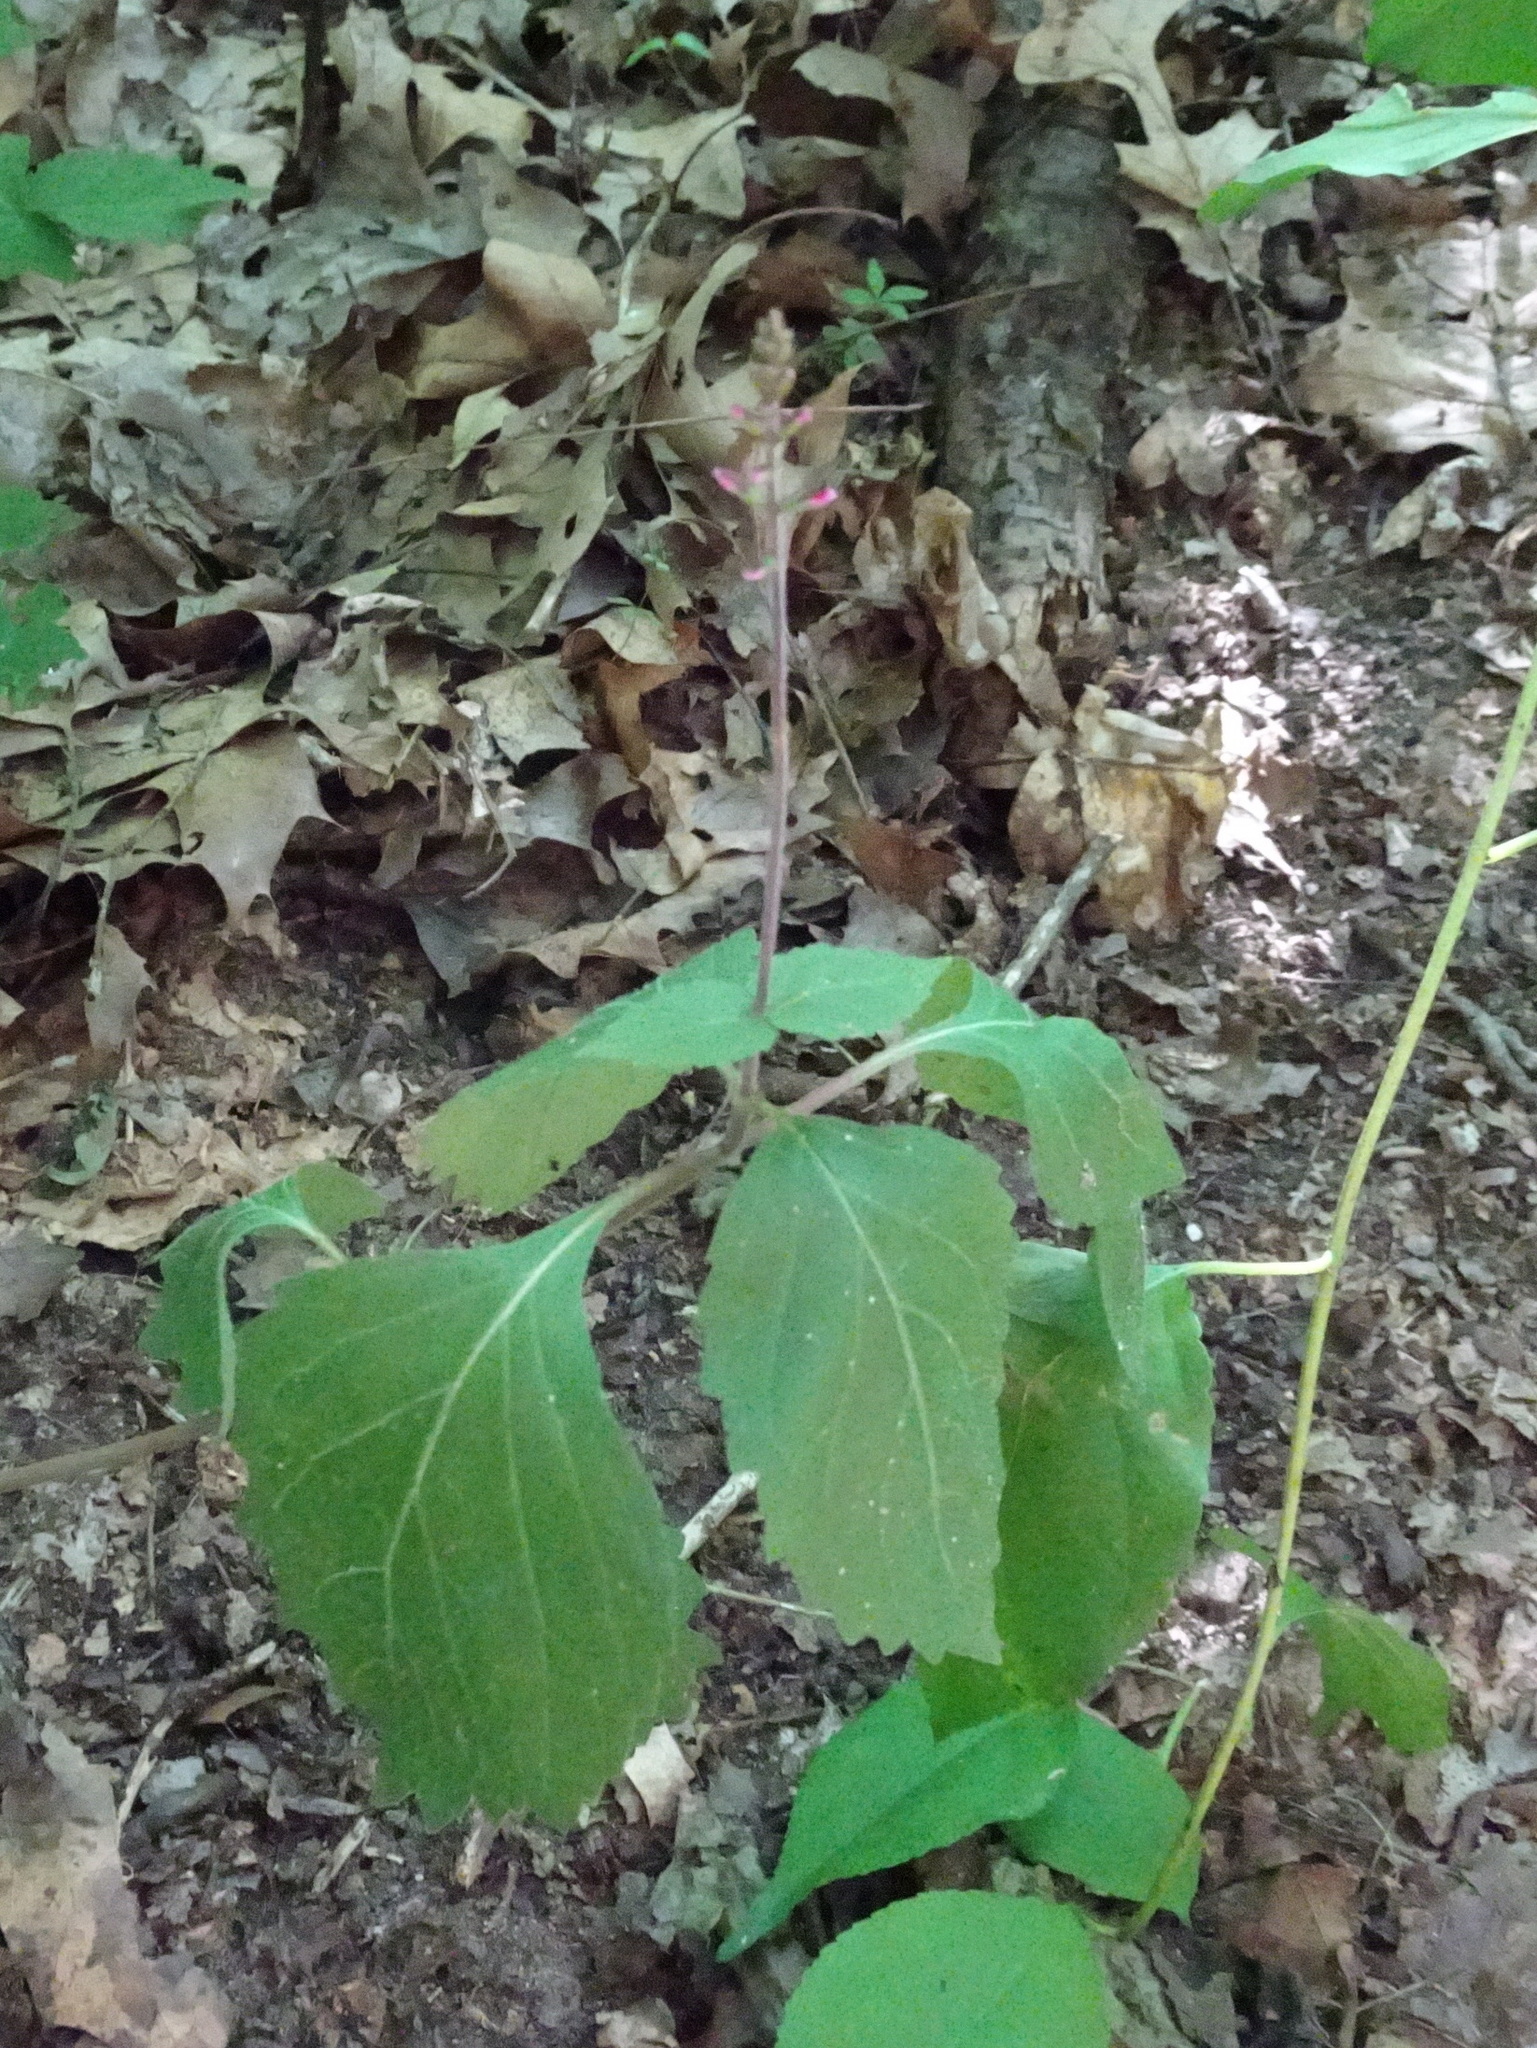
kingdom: Plantae
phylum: Tracheophyta
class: Magnoliopsida
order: Lamiales
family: Phrymaceae
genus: Phryma
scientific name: Phryma leptostachya
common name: American lopseed
